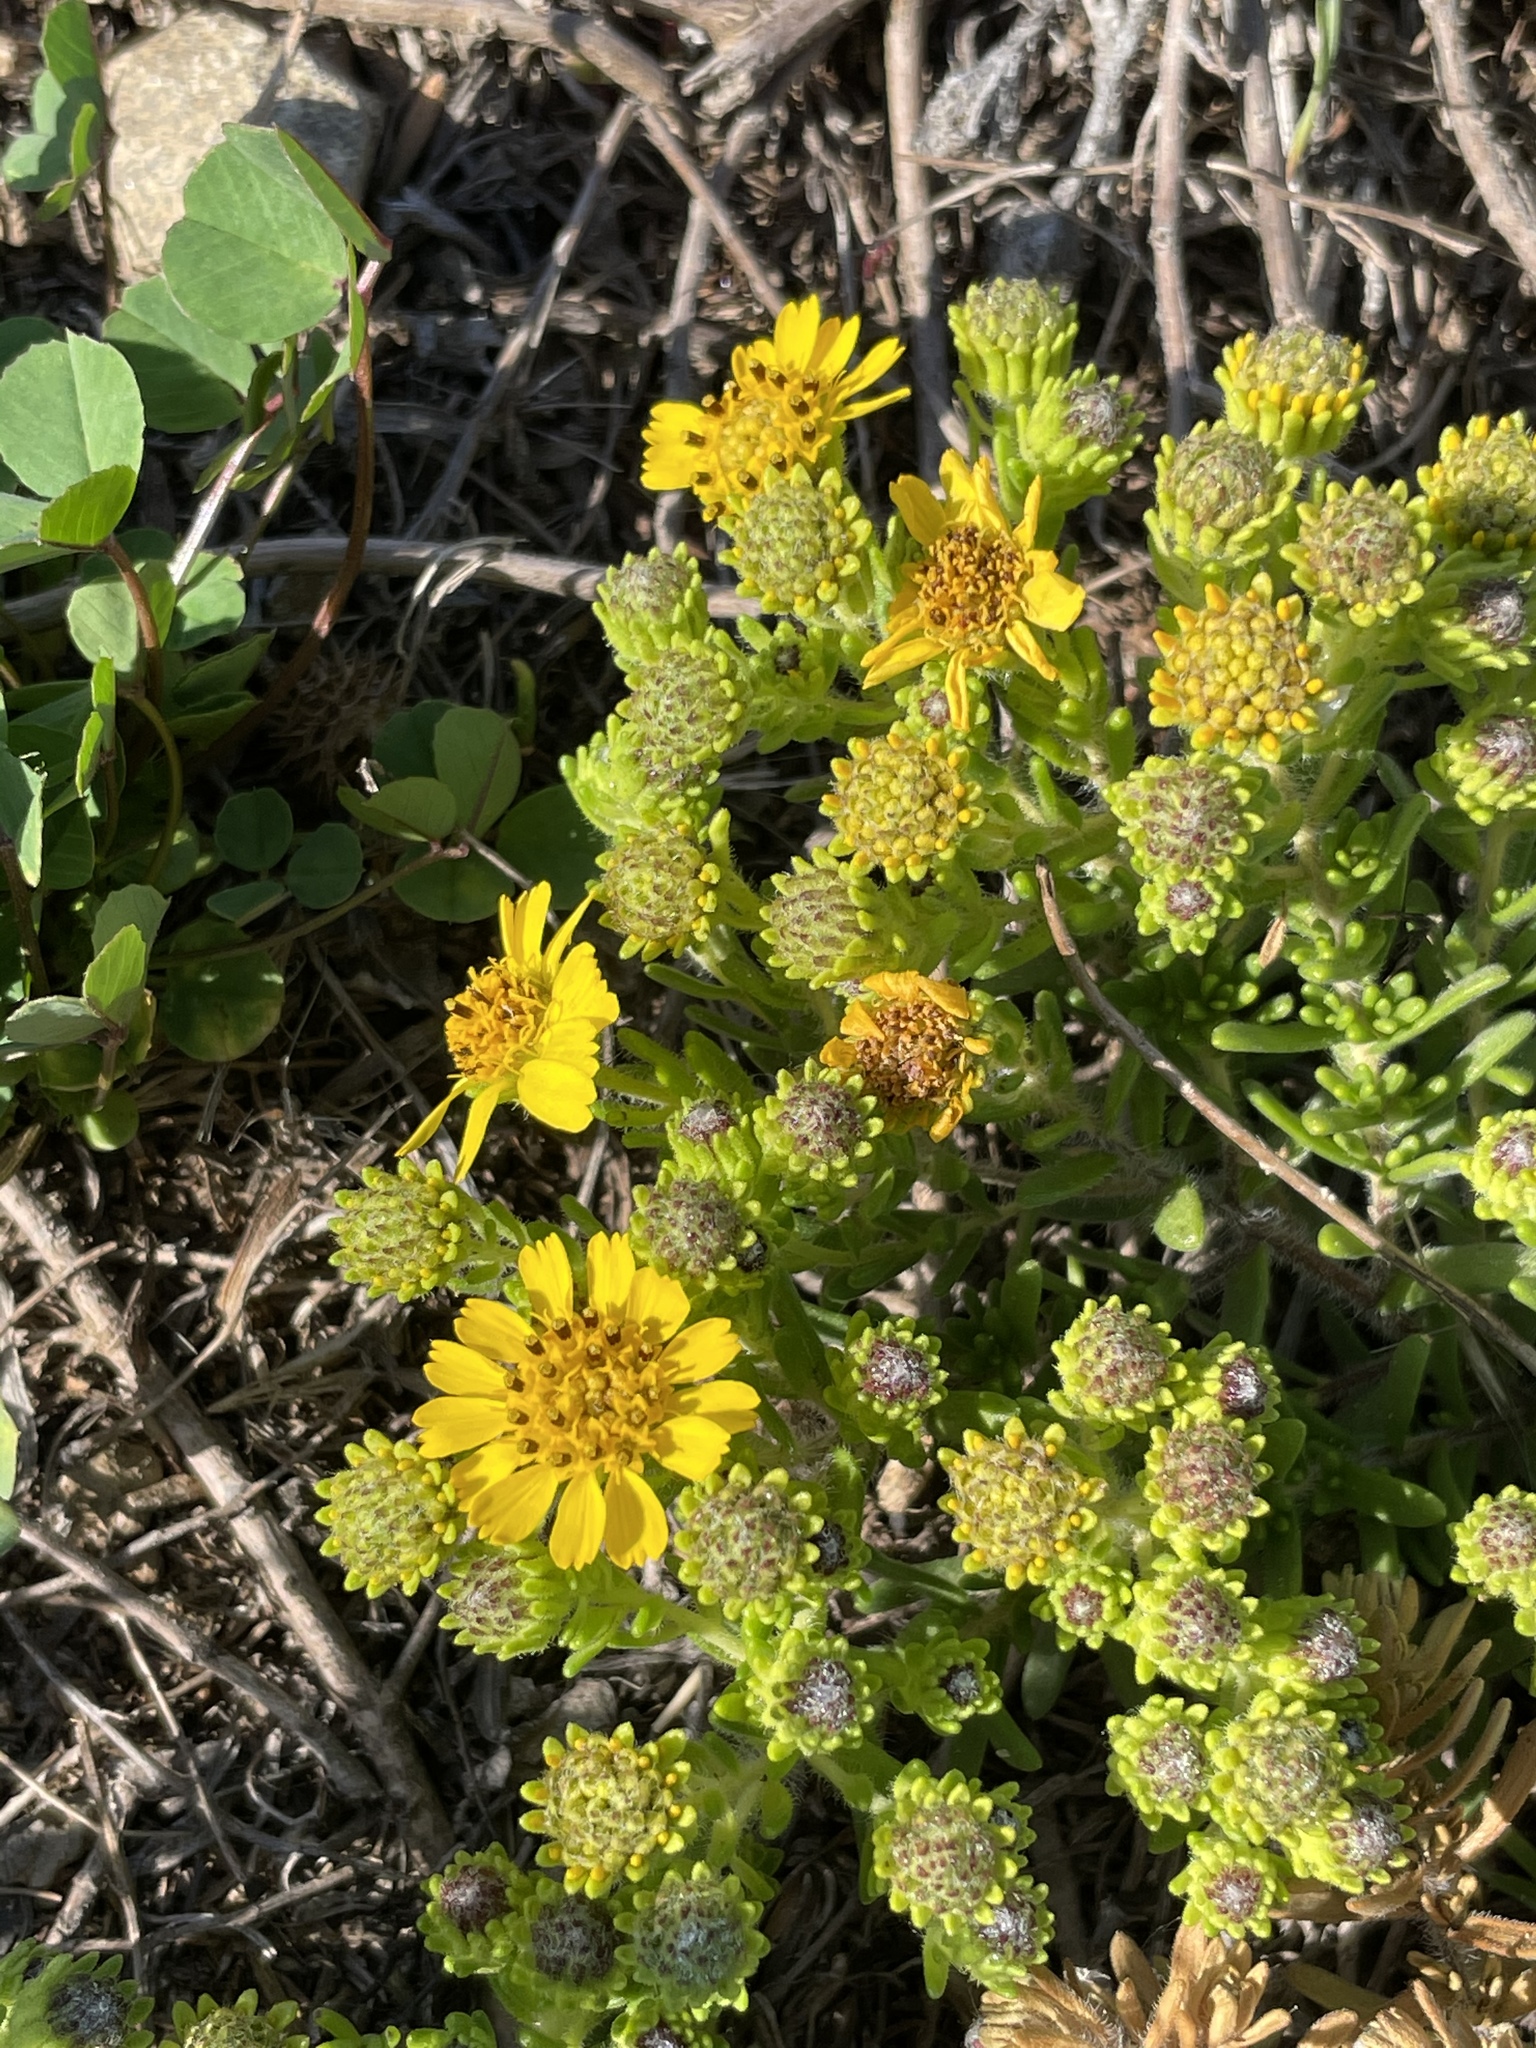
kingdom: Plantae
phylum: Tracheophyta
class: Magnoliopsida
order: Asterales
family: Asteraceae
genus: Deinandra
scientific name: Deinandra clementina
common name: Island tarplant
